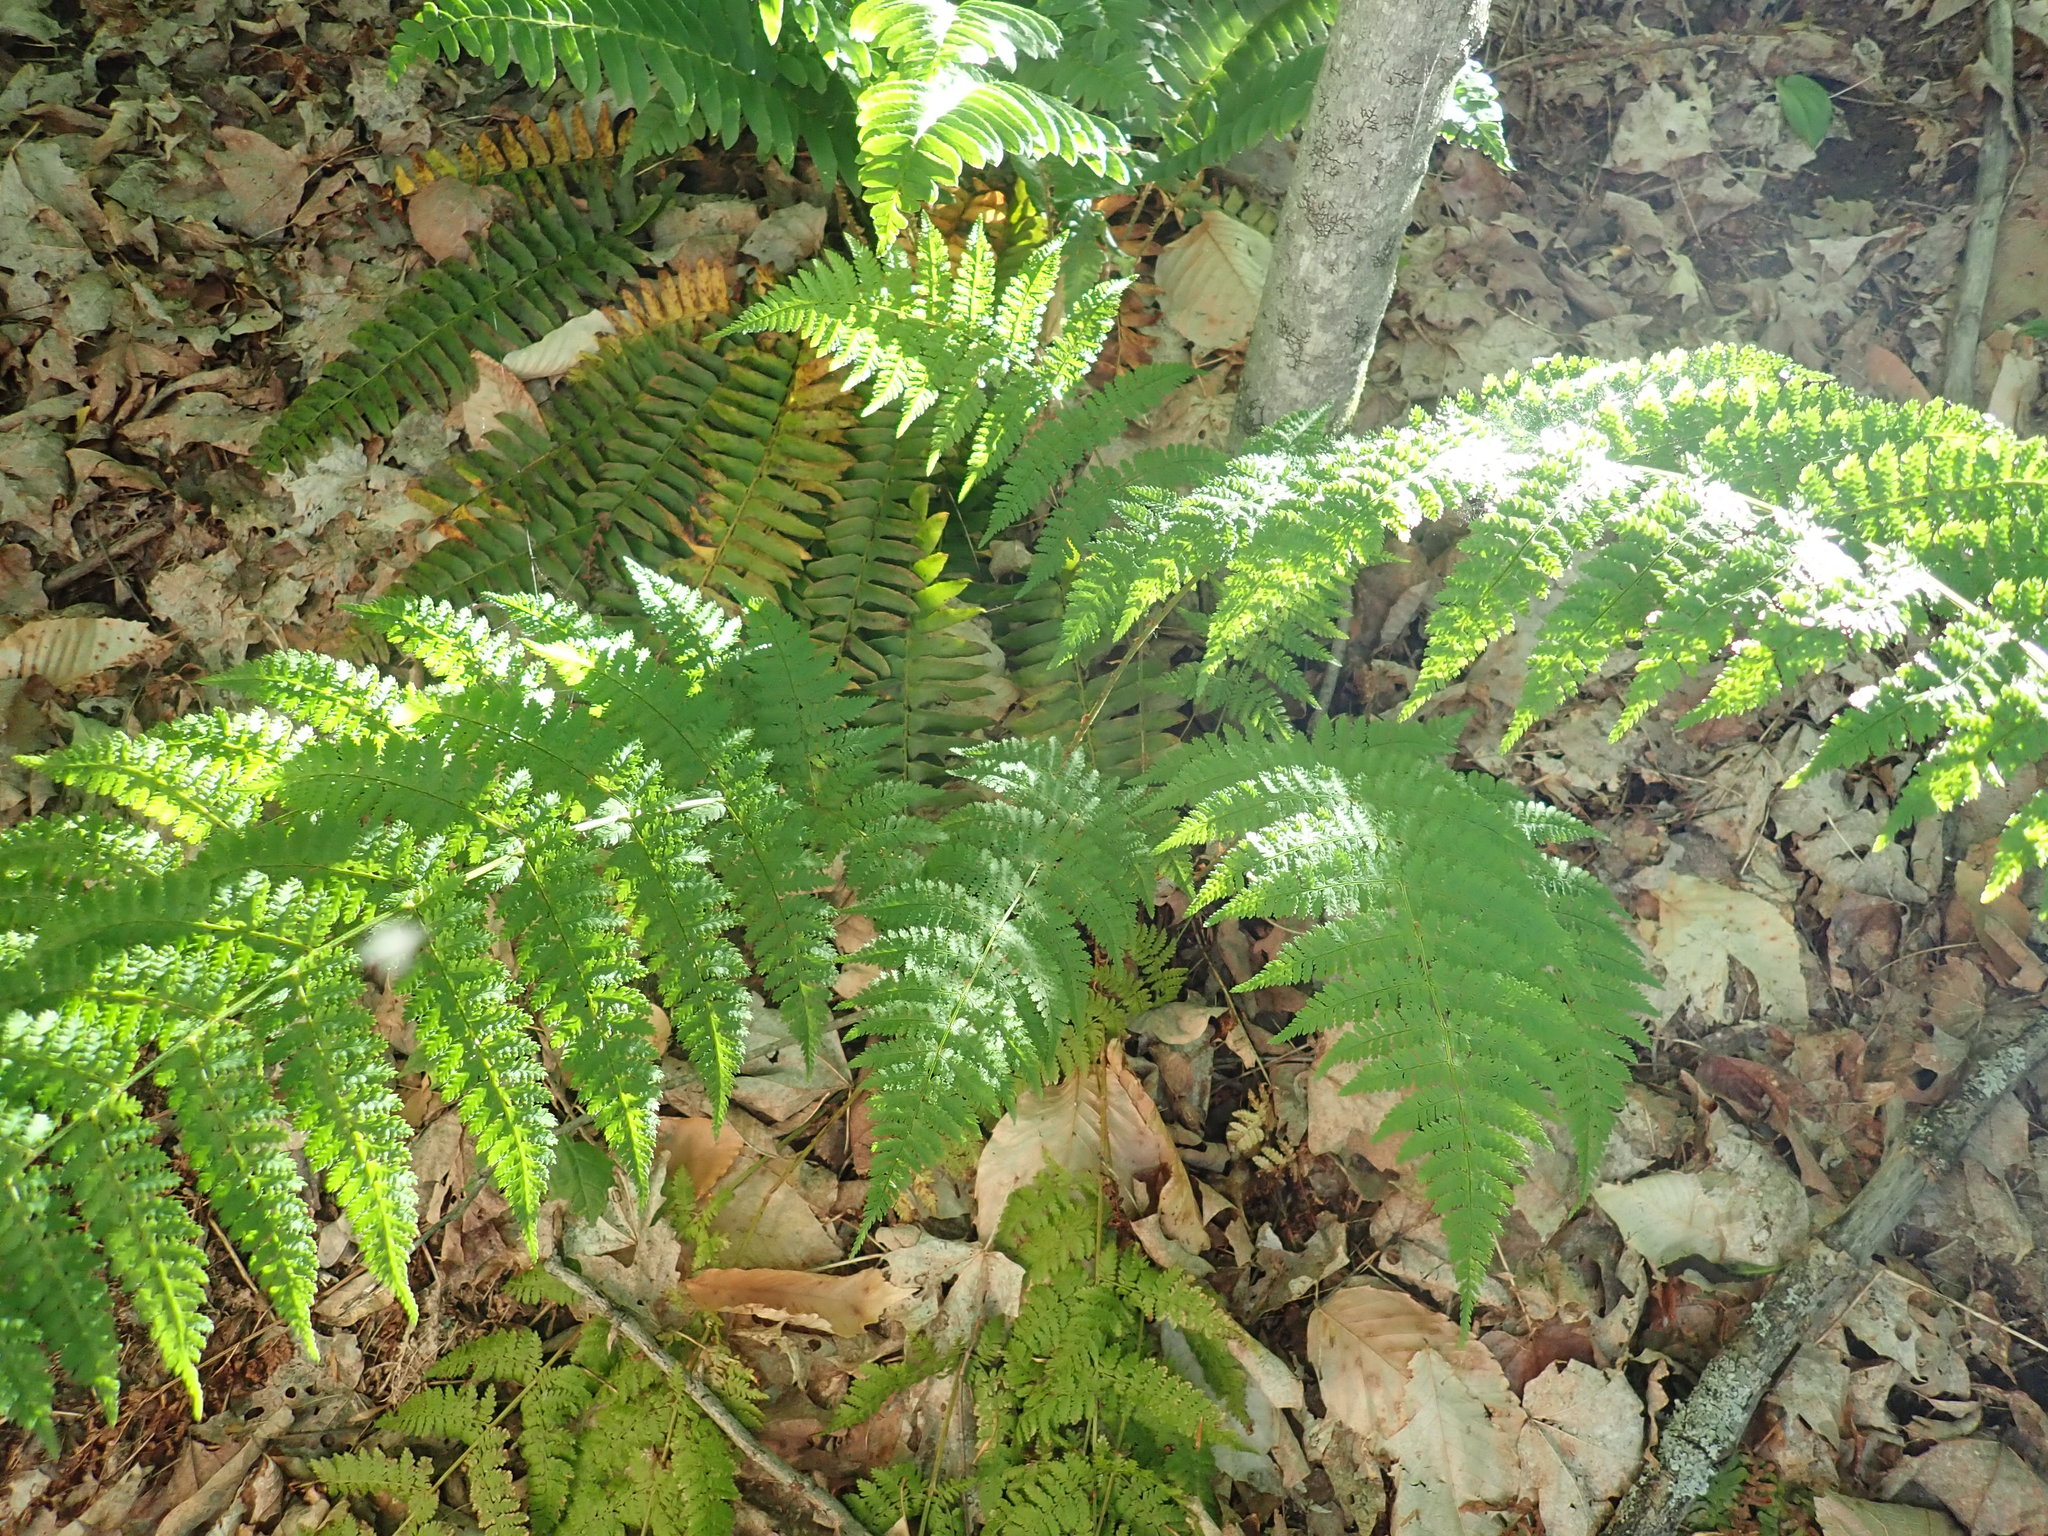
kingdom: Plantae
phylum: Tracheophyta
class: Polypodiopsida
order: Polypodiales
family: Dryopteridaceae
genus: Dryopteris
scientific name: Dryopteris intermedia
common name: Evergreen wood fern
